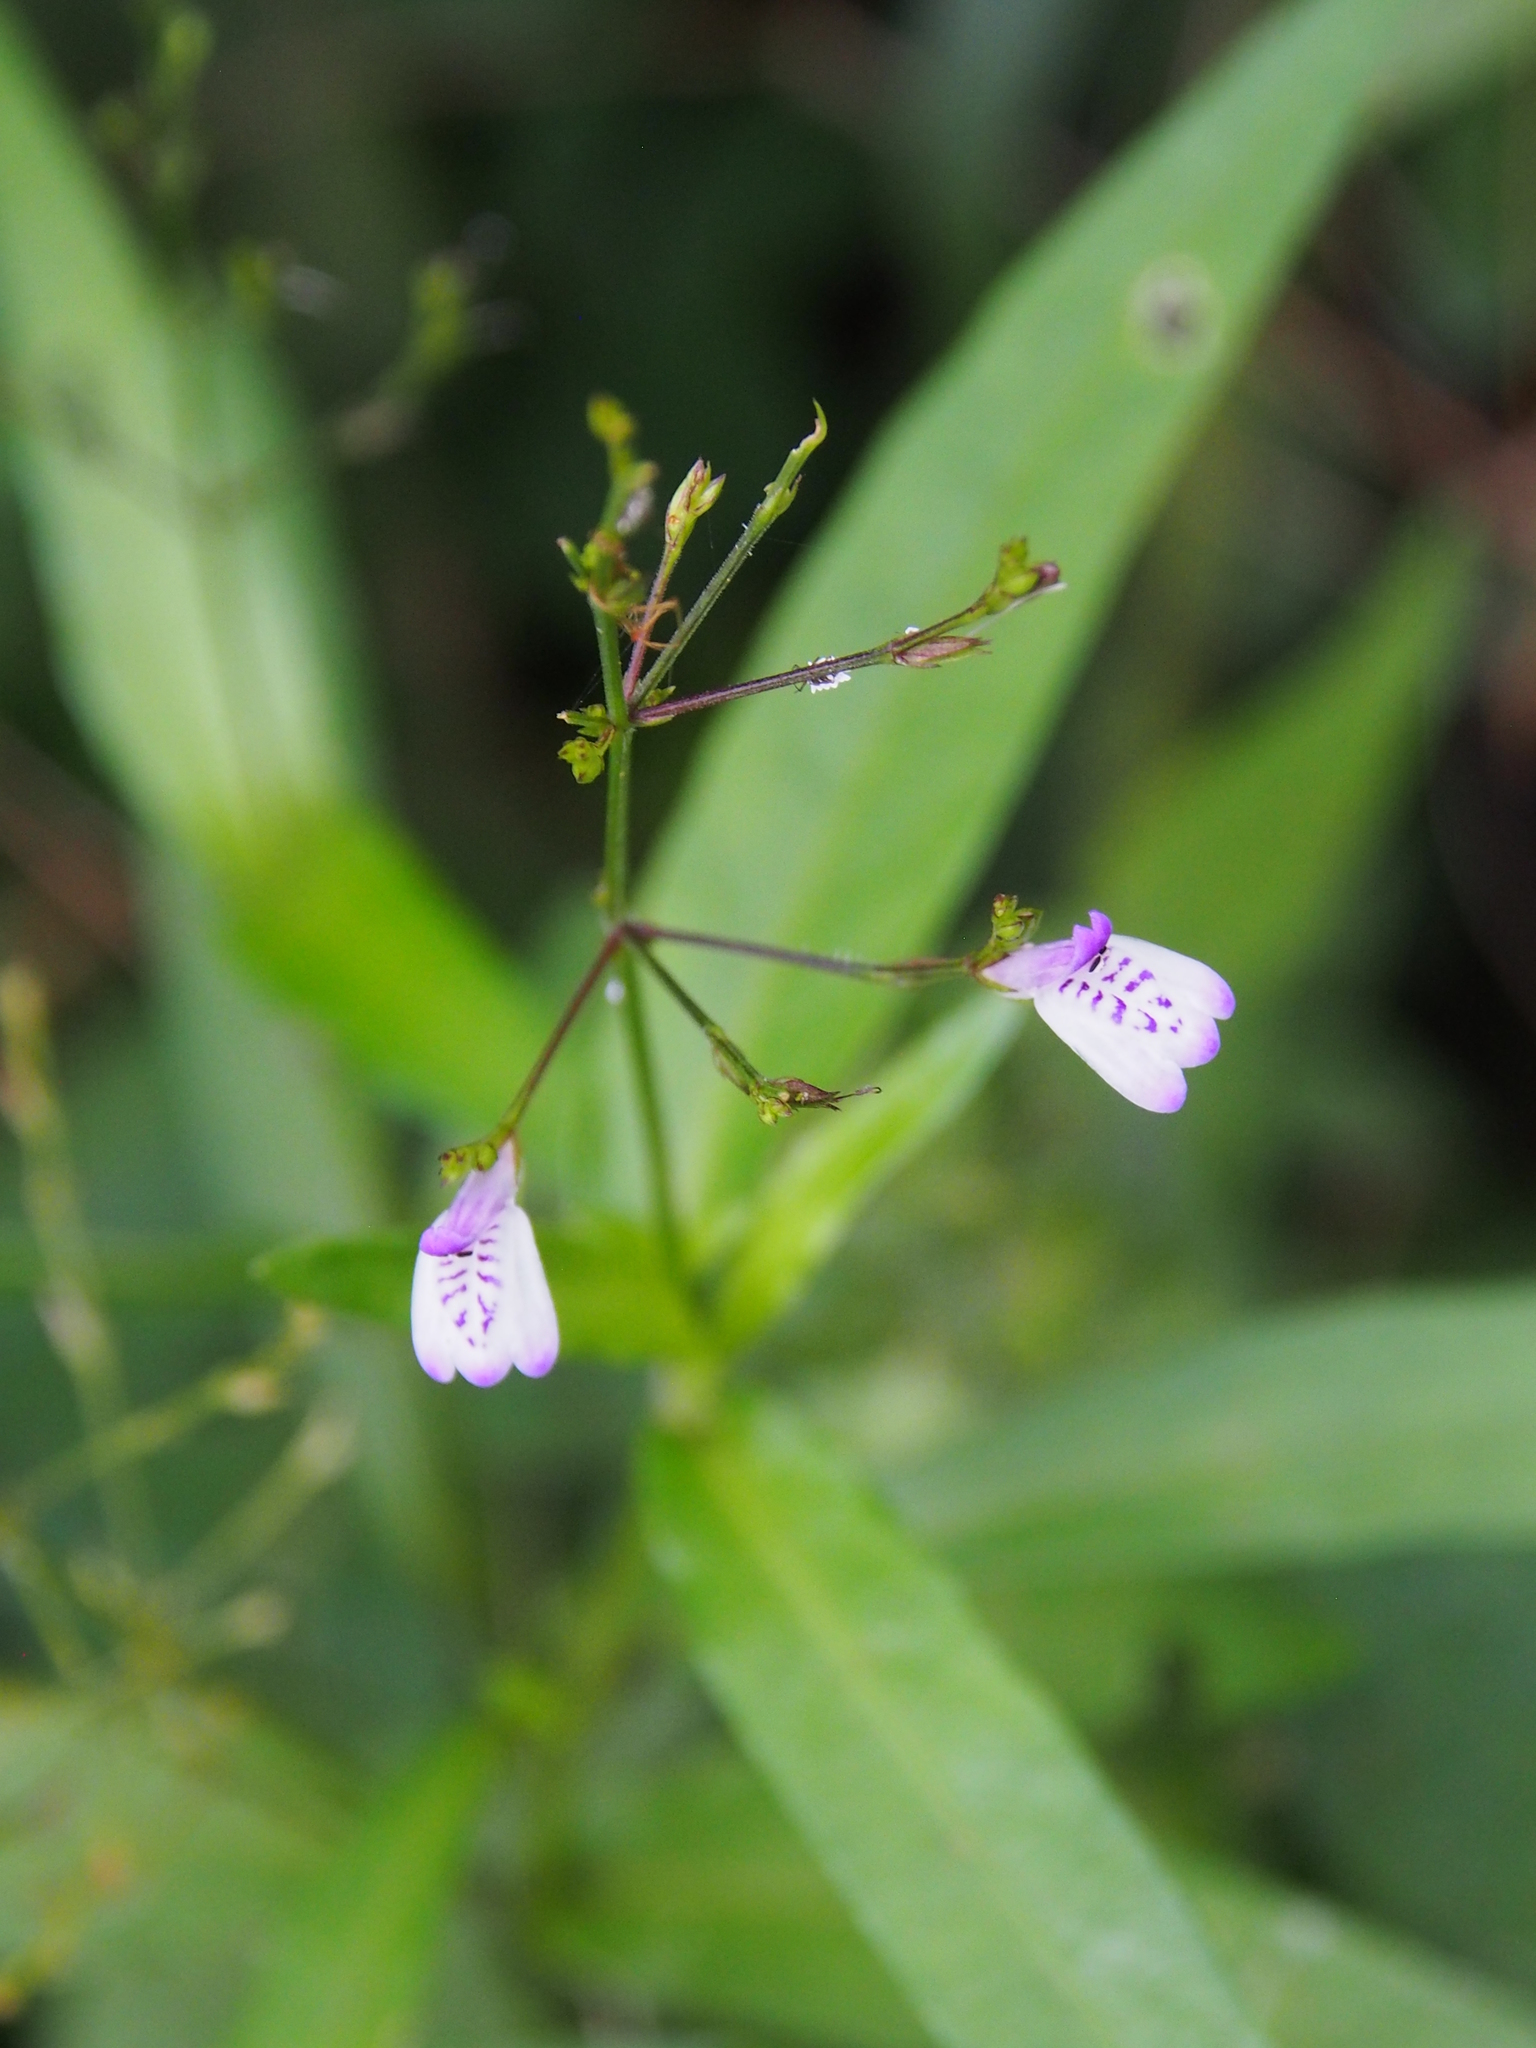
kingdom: Plantae
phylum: Tracheophyta
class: Magnoliopsida
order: Lamiales
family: Acanthaceae
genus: Justicia
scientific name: Justicia comata
